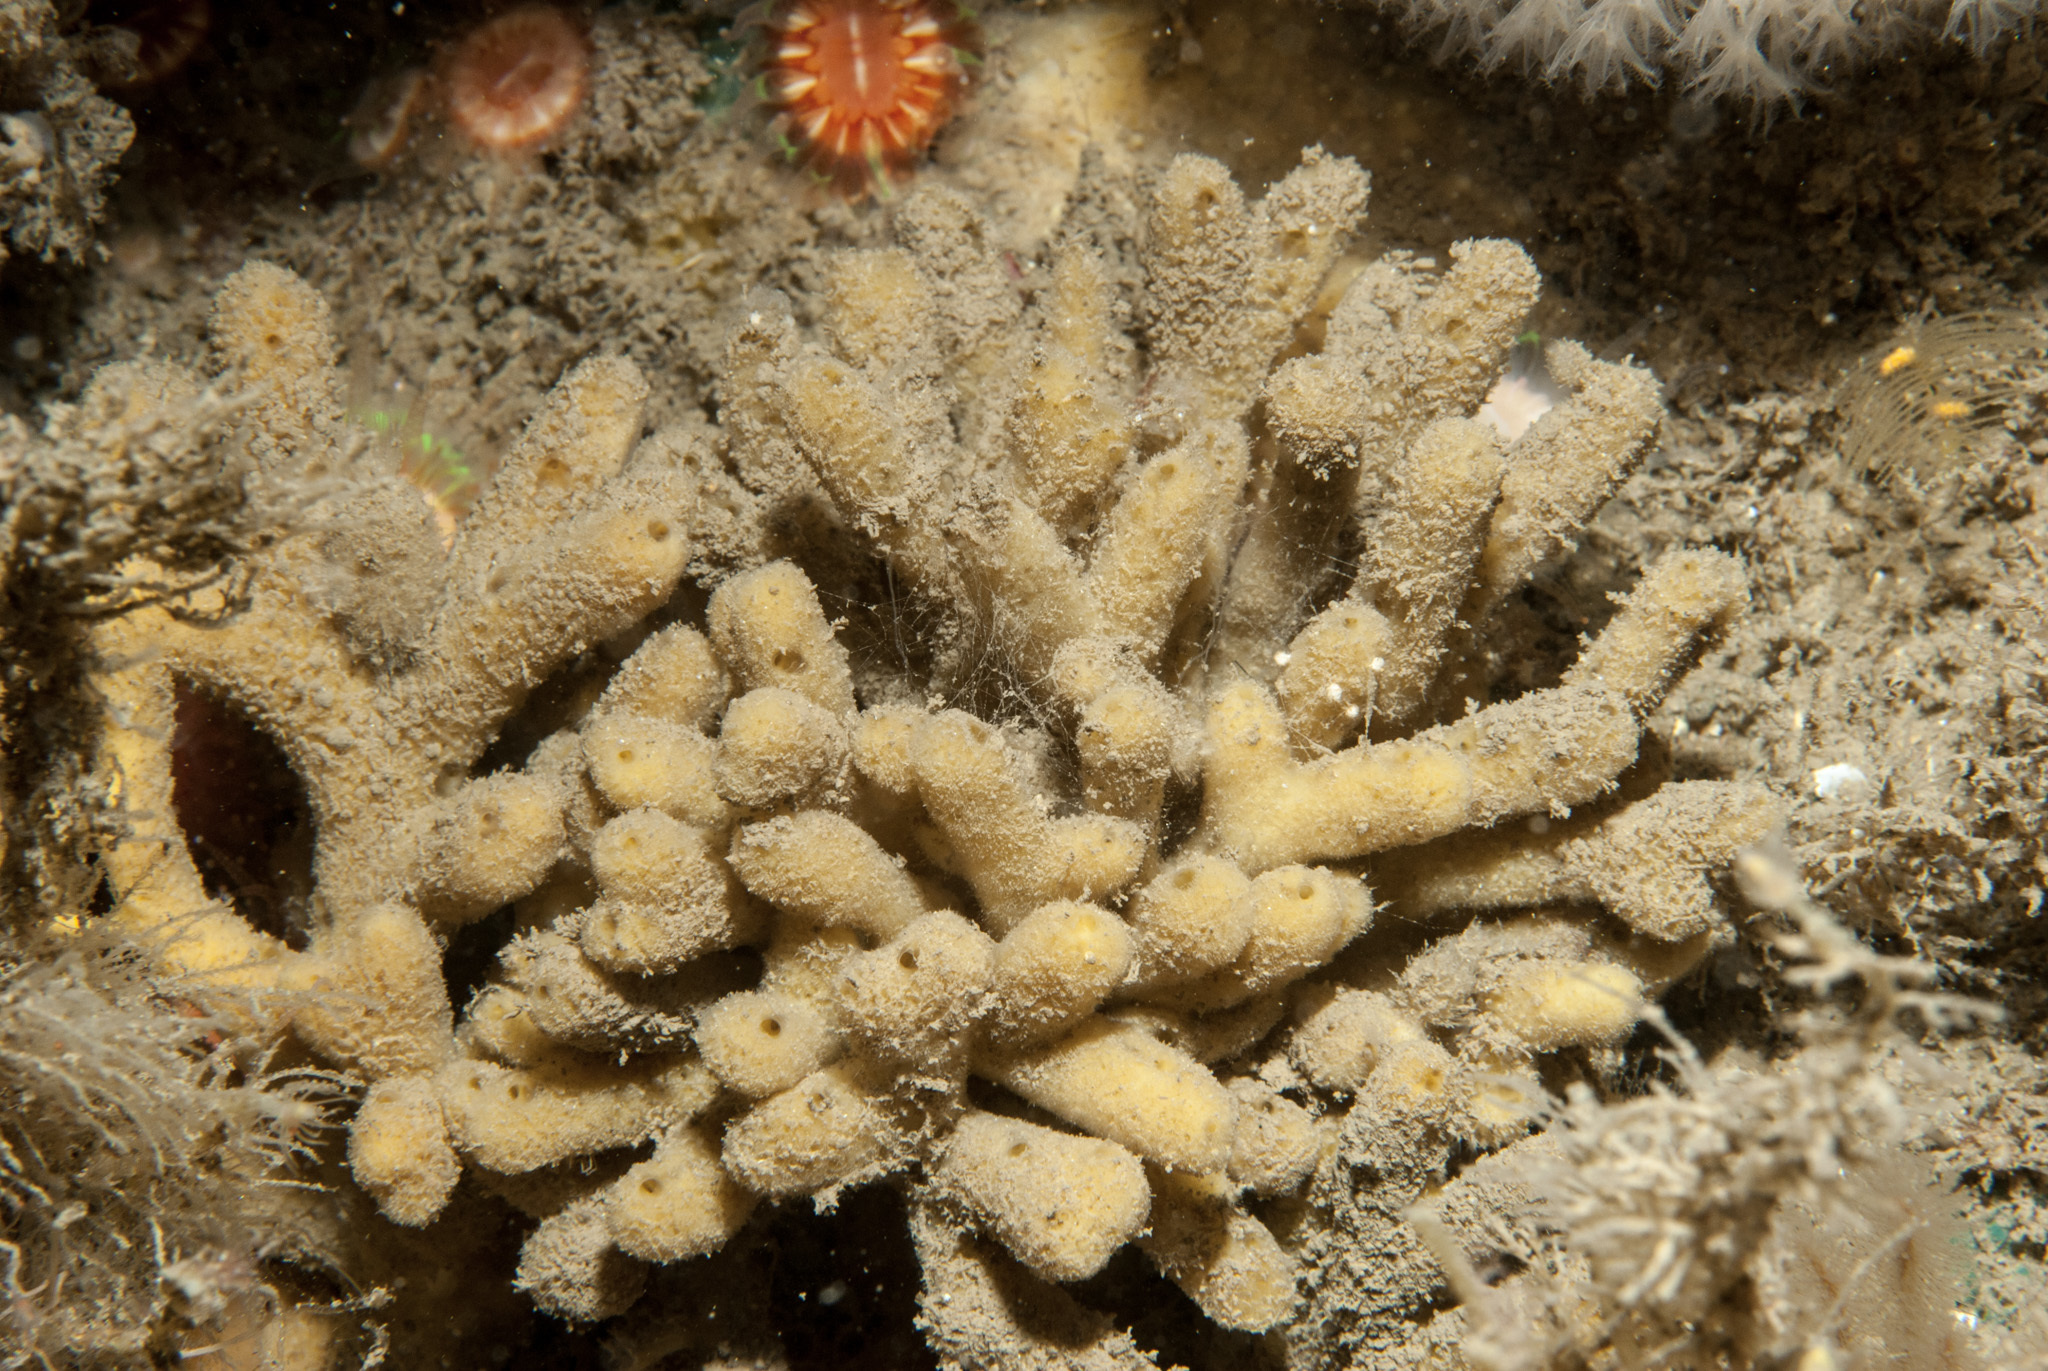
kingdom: Animalia
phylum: Porifera
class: Demospongiae
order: Axinellida
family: Stelligeridae
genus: Stelligera
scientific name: Stelligera stuposa
